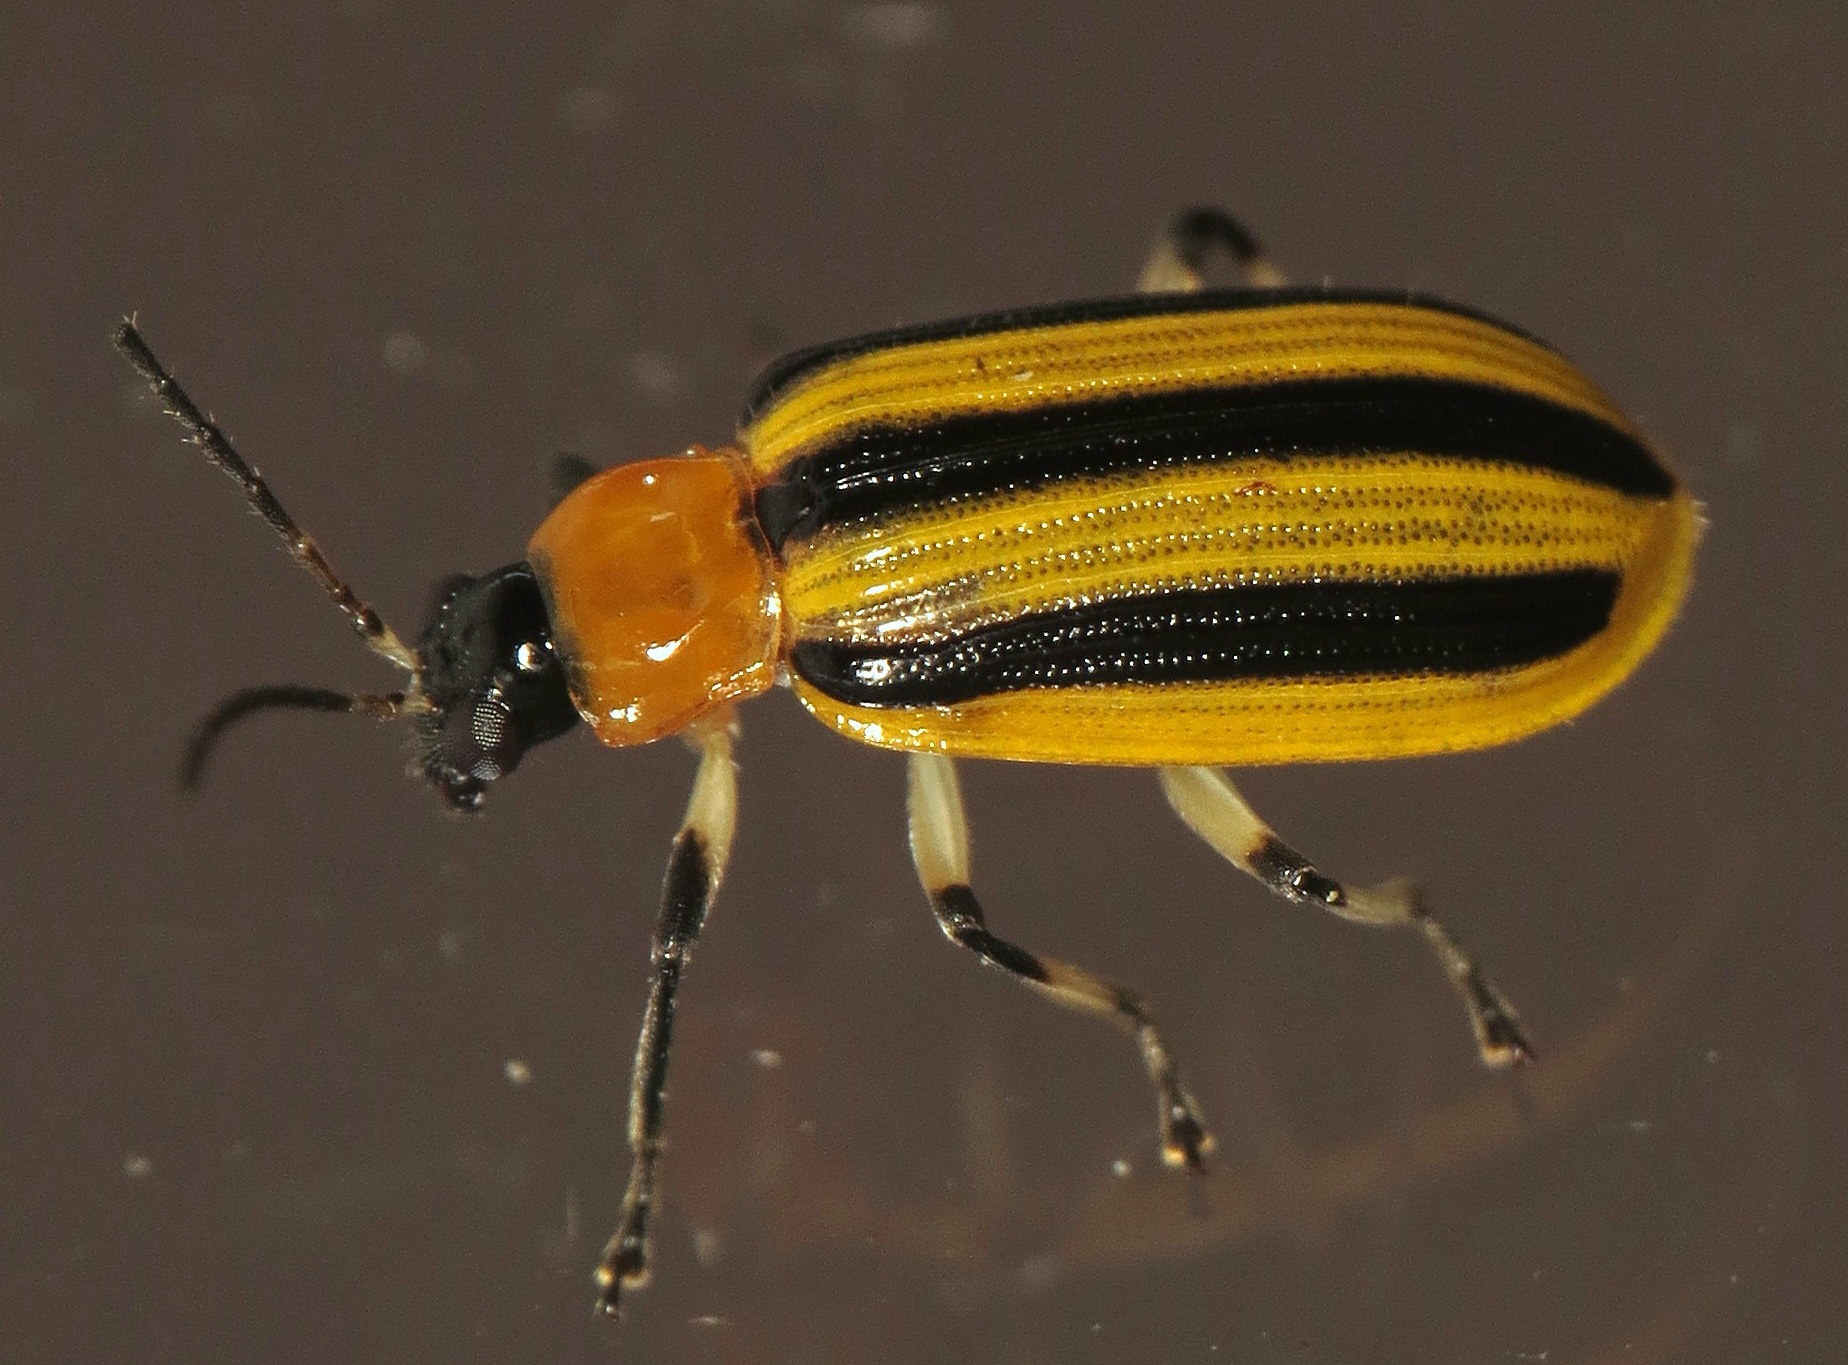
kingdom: Animalia
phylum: Arthropoda
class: Insecta
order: Coleoptera
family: Chrysomelidae
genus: Acalymma
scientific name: Acalymma vittatum
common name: Striped cucumber beetle
